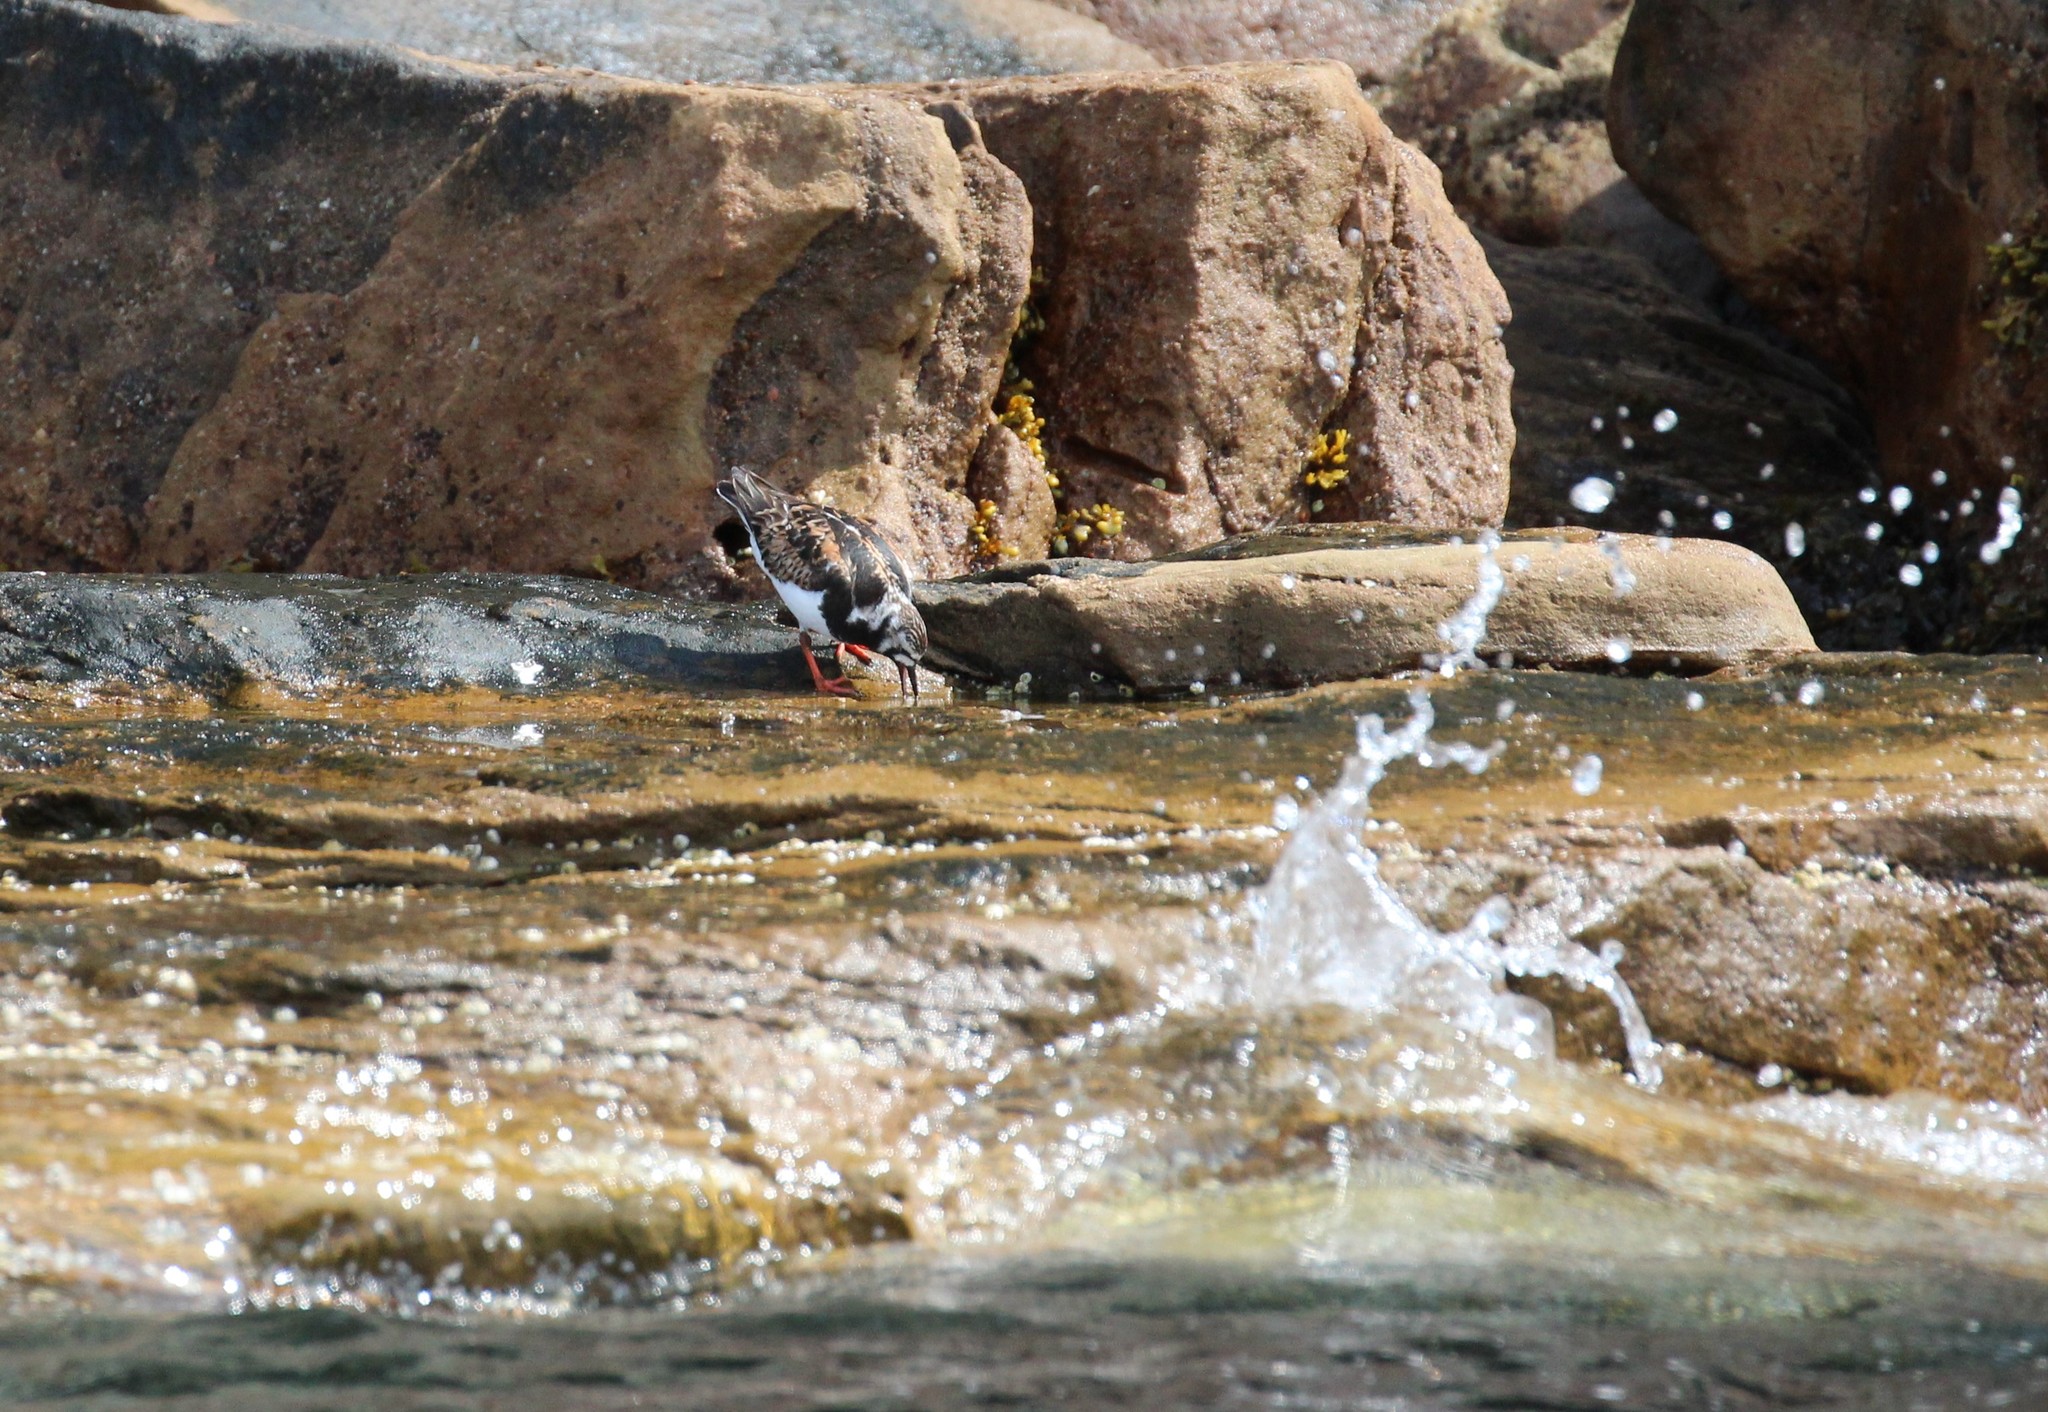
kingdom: Animalia
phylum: Chordata
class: Aves
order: Charadriiformes
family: Scolopacidae
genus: Arenaria
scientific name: Arenaria interpres
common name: Ruddy turnstone
